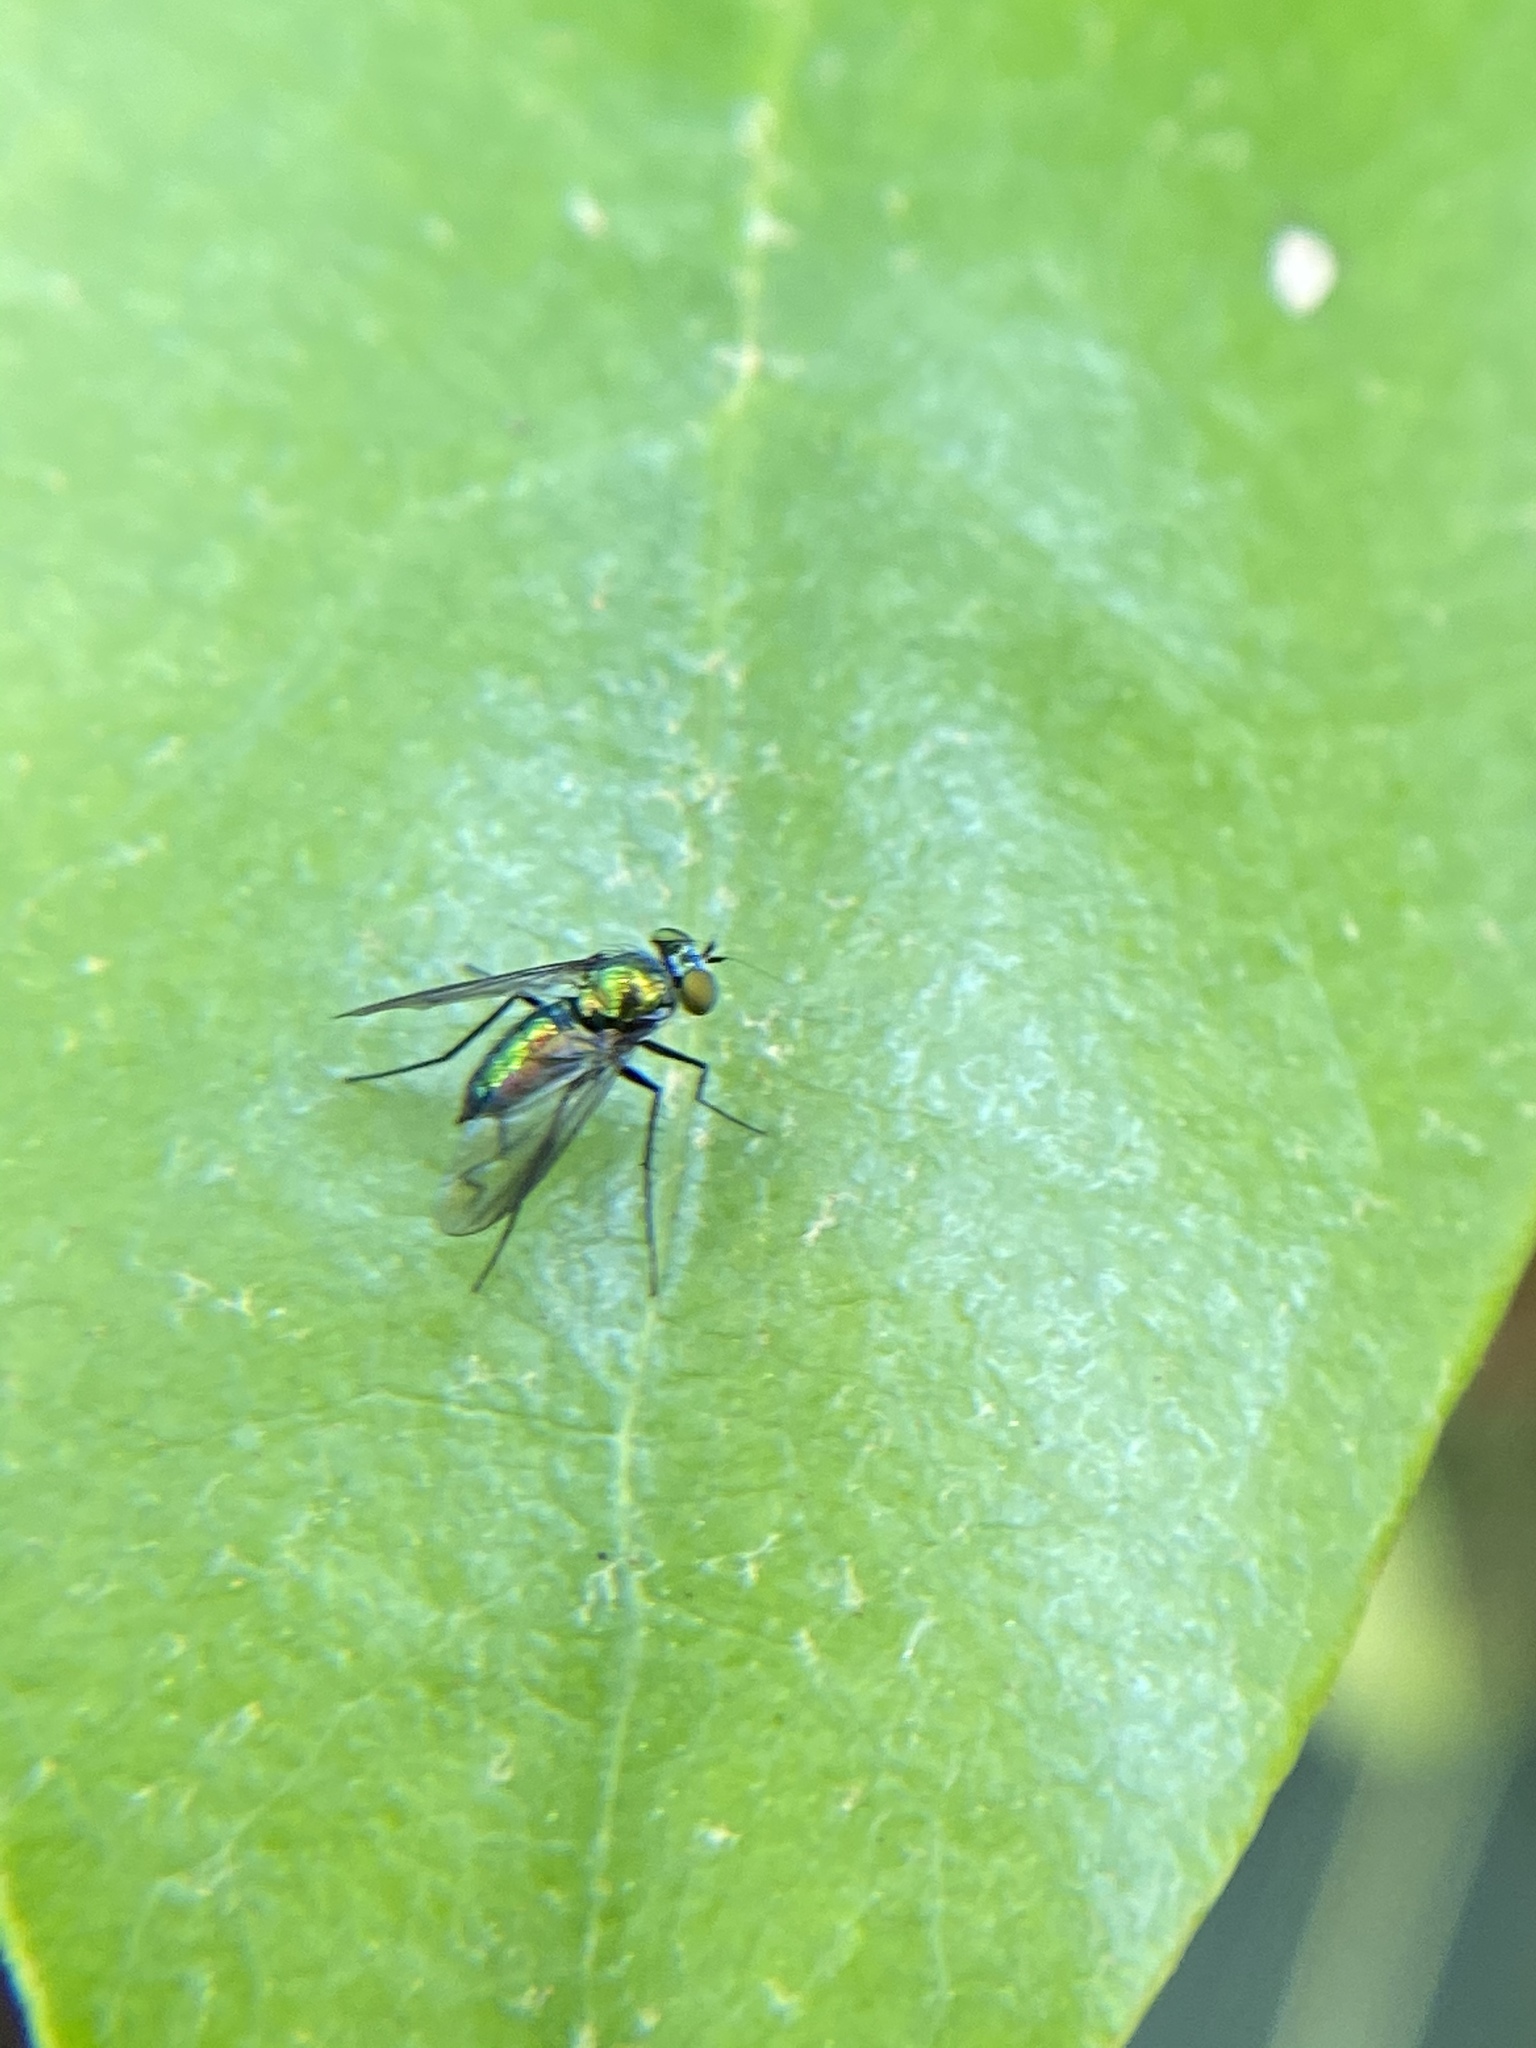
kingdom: Animalia
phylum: Arthropoda
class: Insecta
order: Diptera
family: Dolichopodidae
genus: Condylostylus
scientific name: Condylostylus patibulatus
